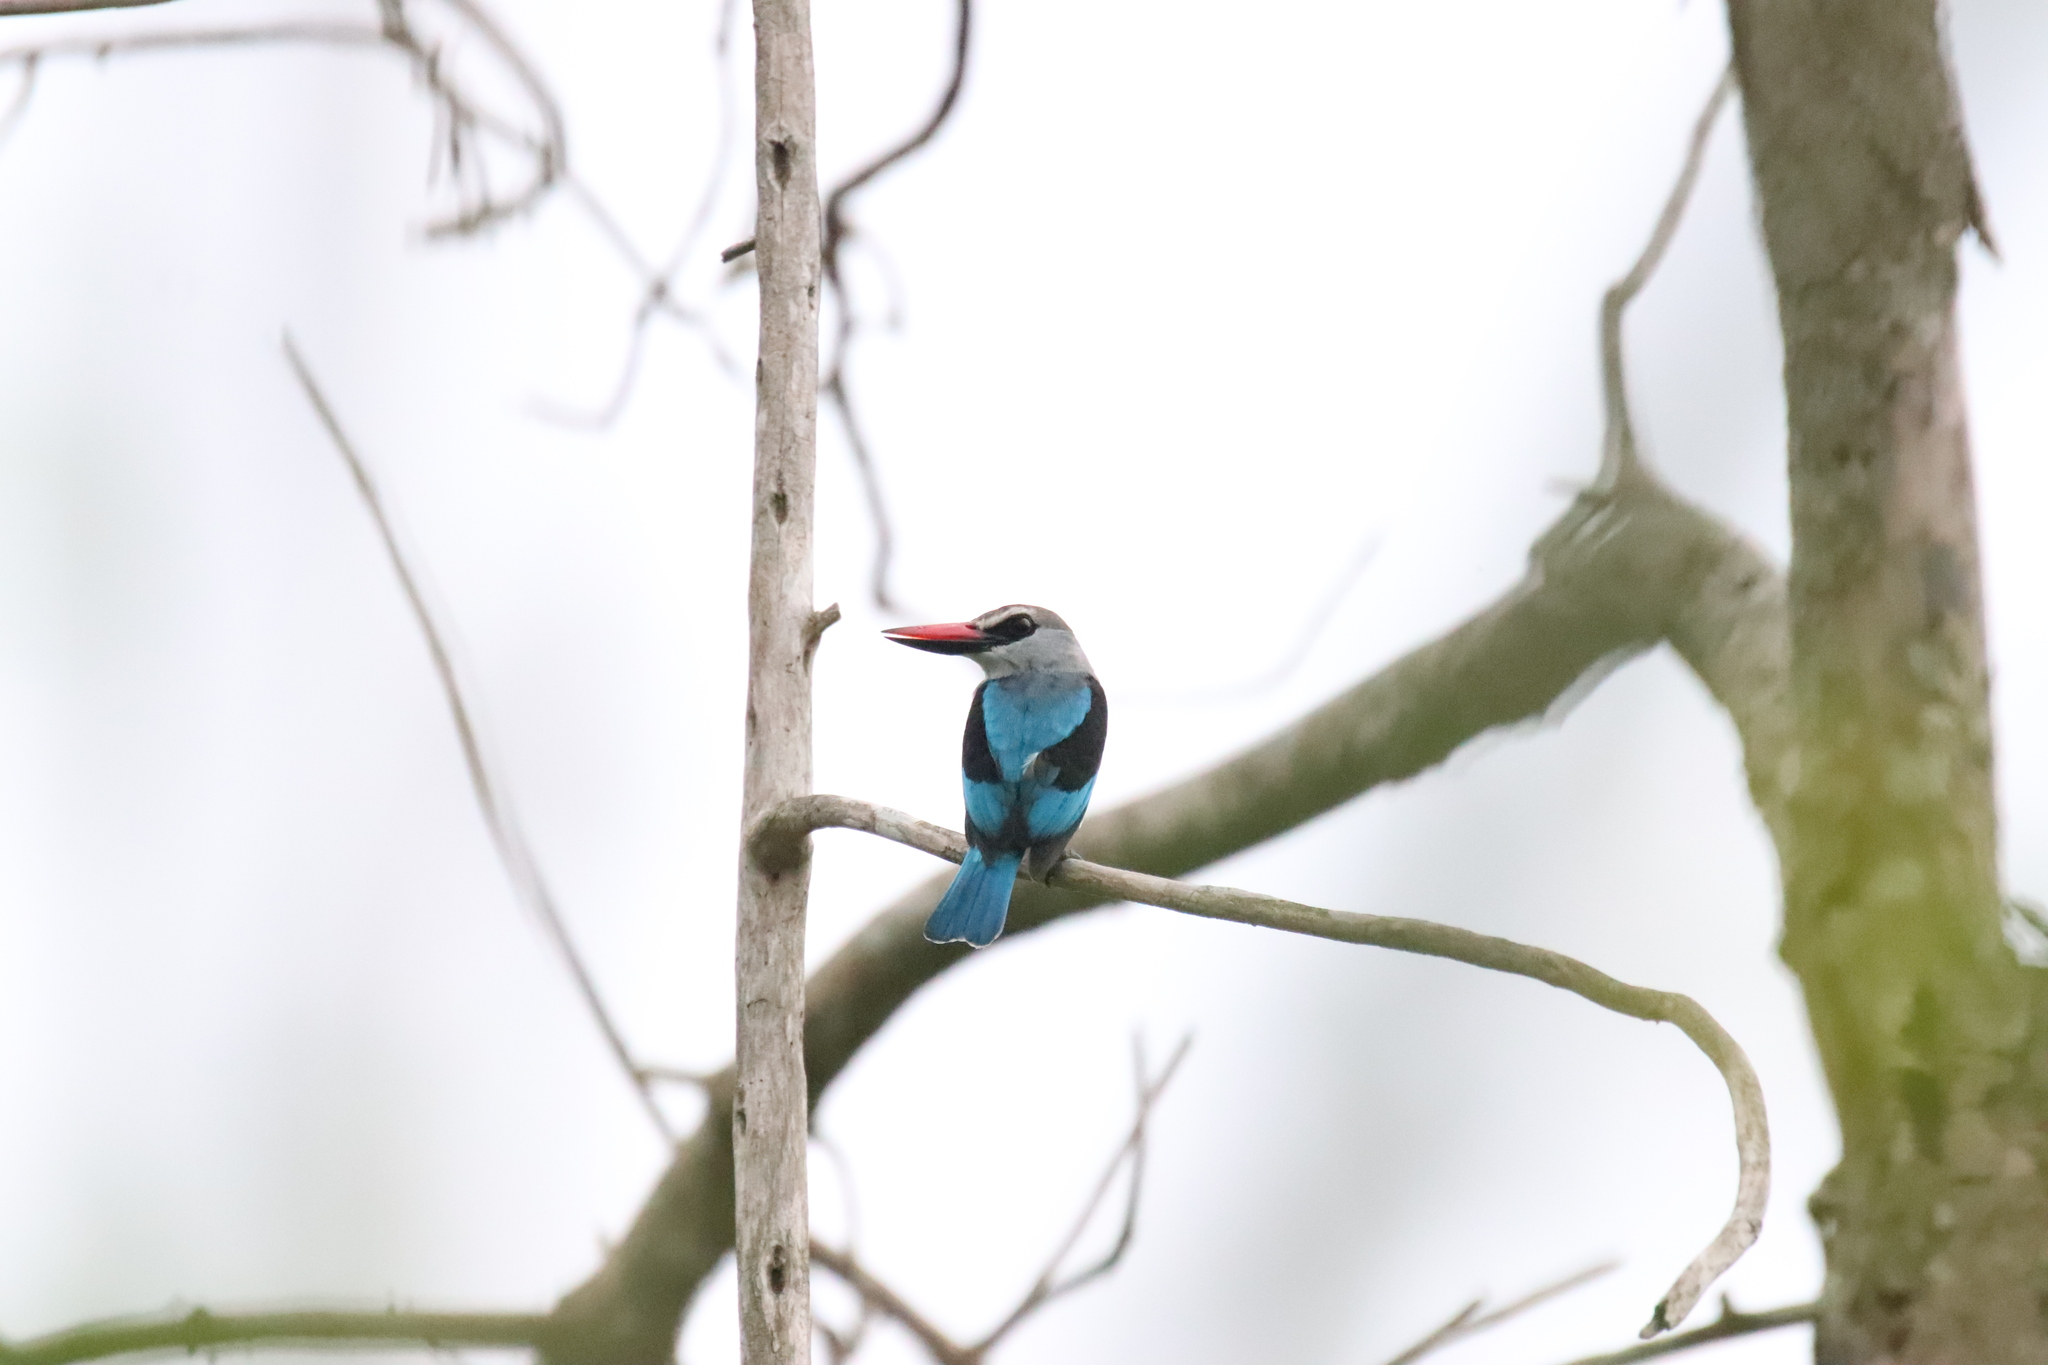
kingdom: Animalia
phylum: Chordata
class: Aves
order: Coraciiformes
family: Alcedinidae
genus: Halcyon
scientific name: Halcyon senegalensis
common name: Woodland kingfisher
